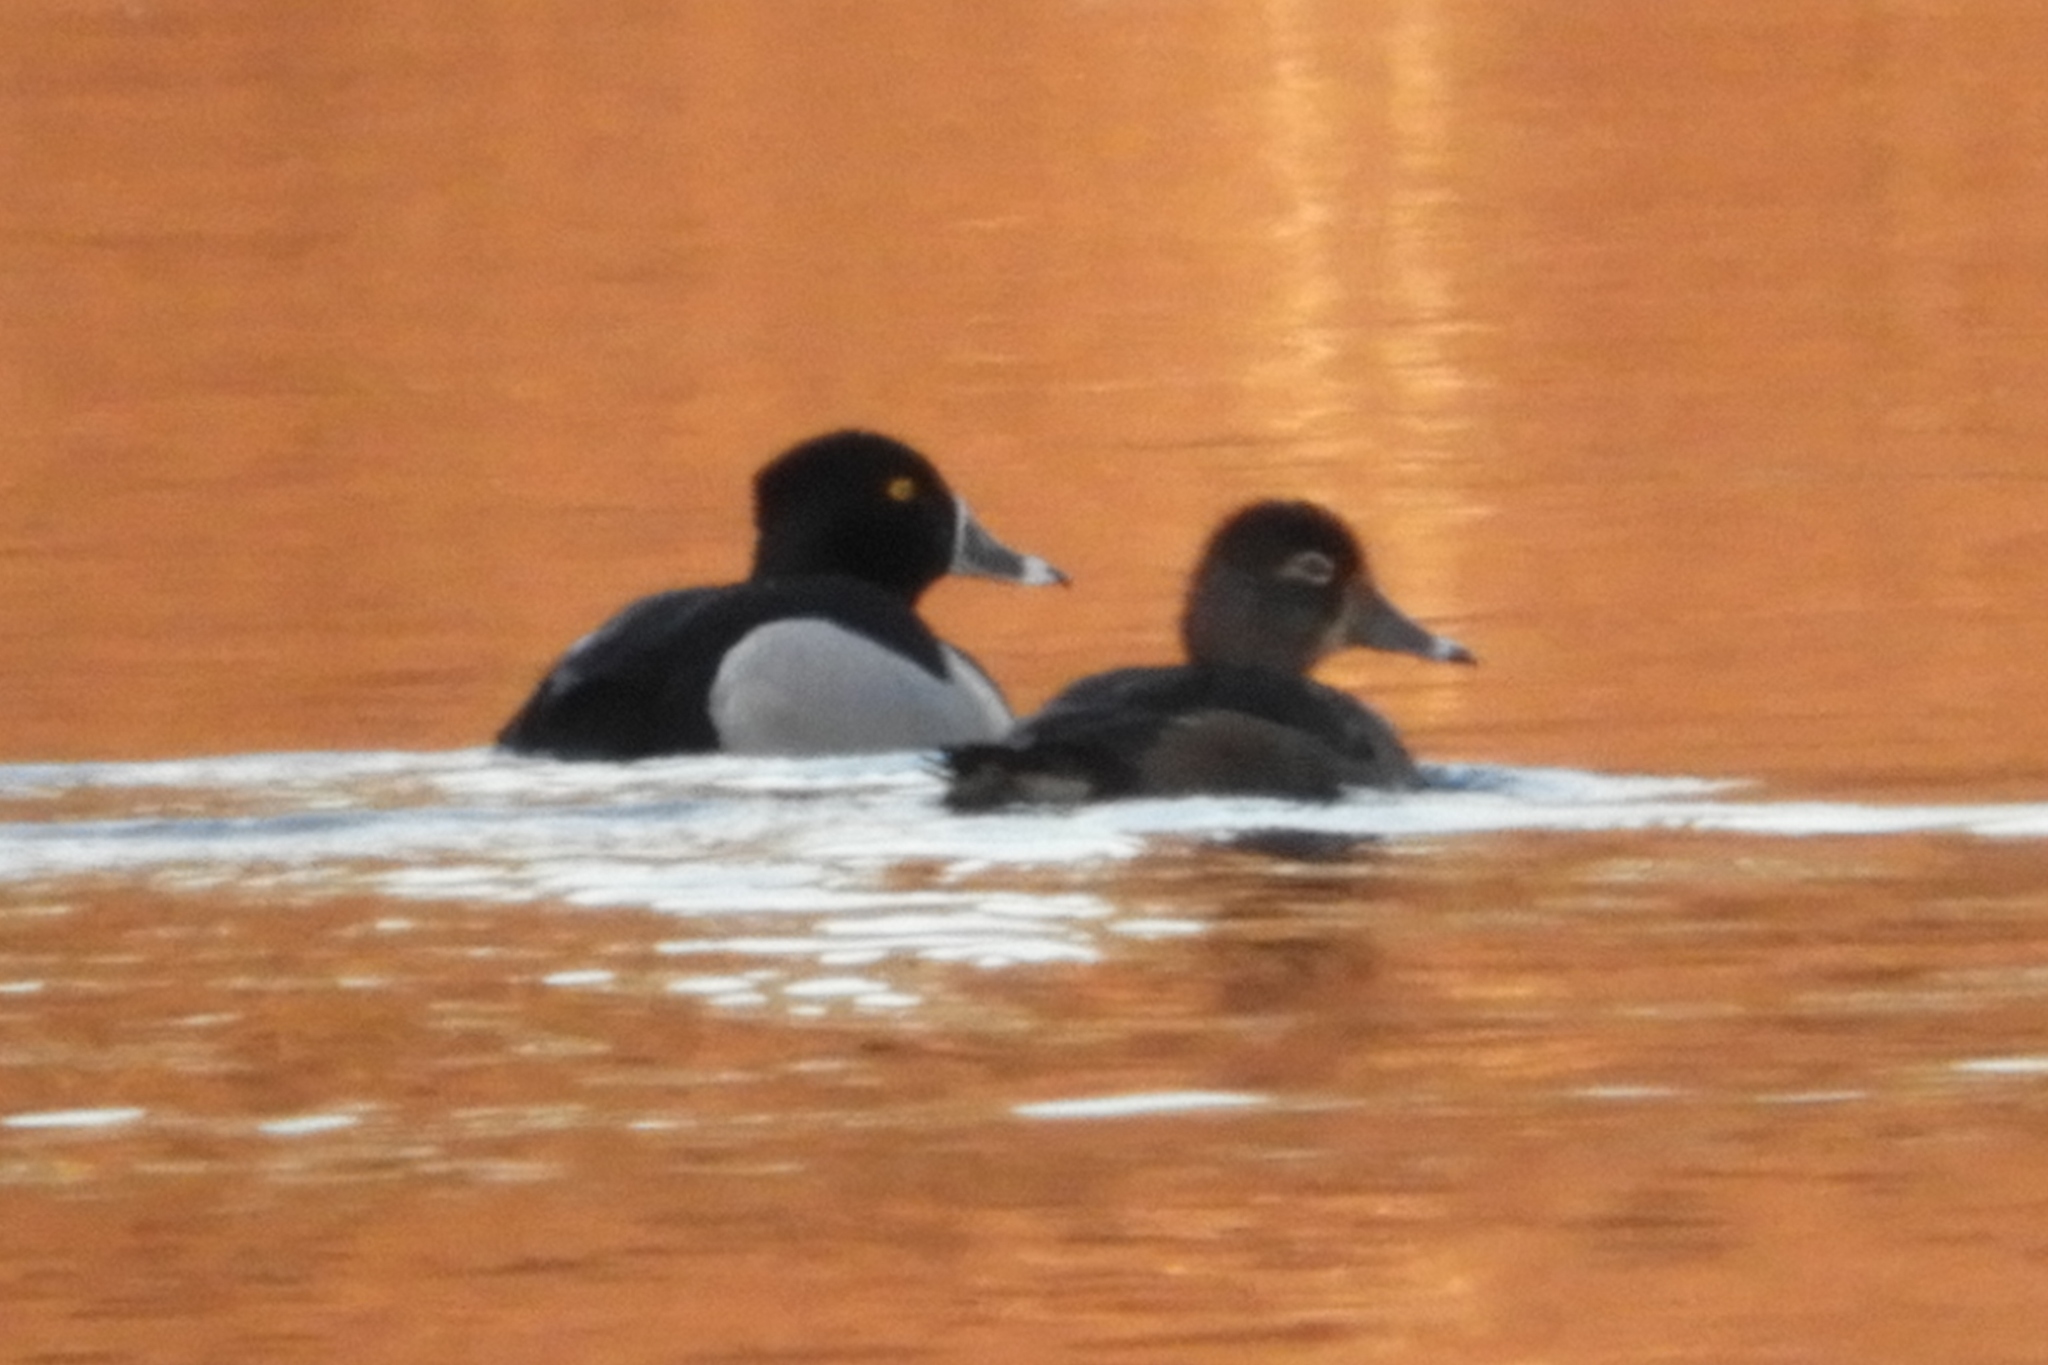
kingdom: Animalia
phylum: Chordata
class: Aves
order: Anseriformes
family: Anatidae
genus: Aythya
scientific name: Aythya collaris
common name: Ring-necked duck
